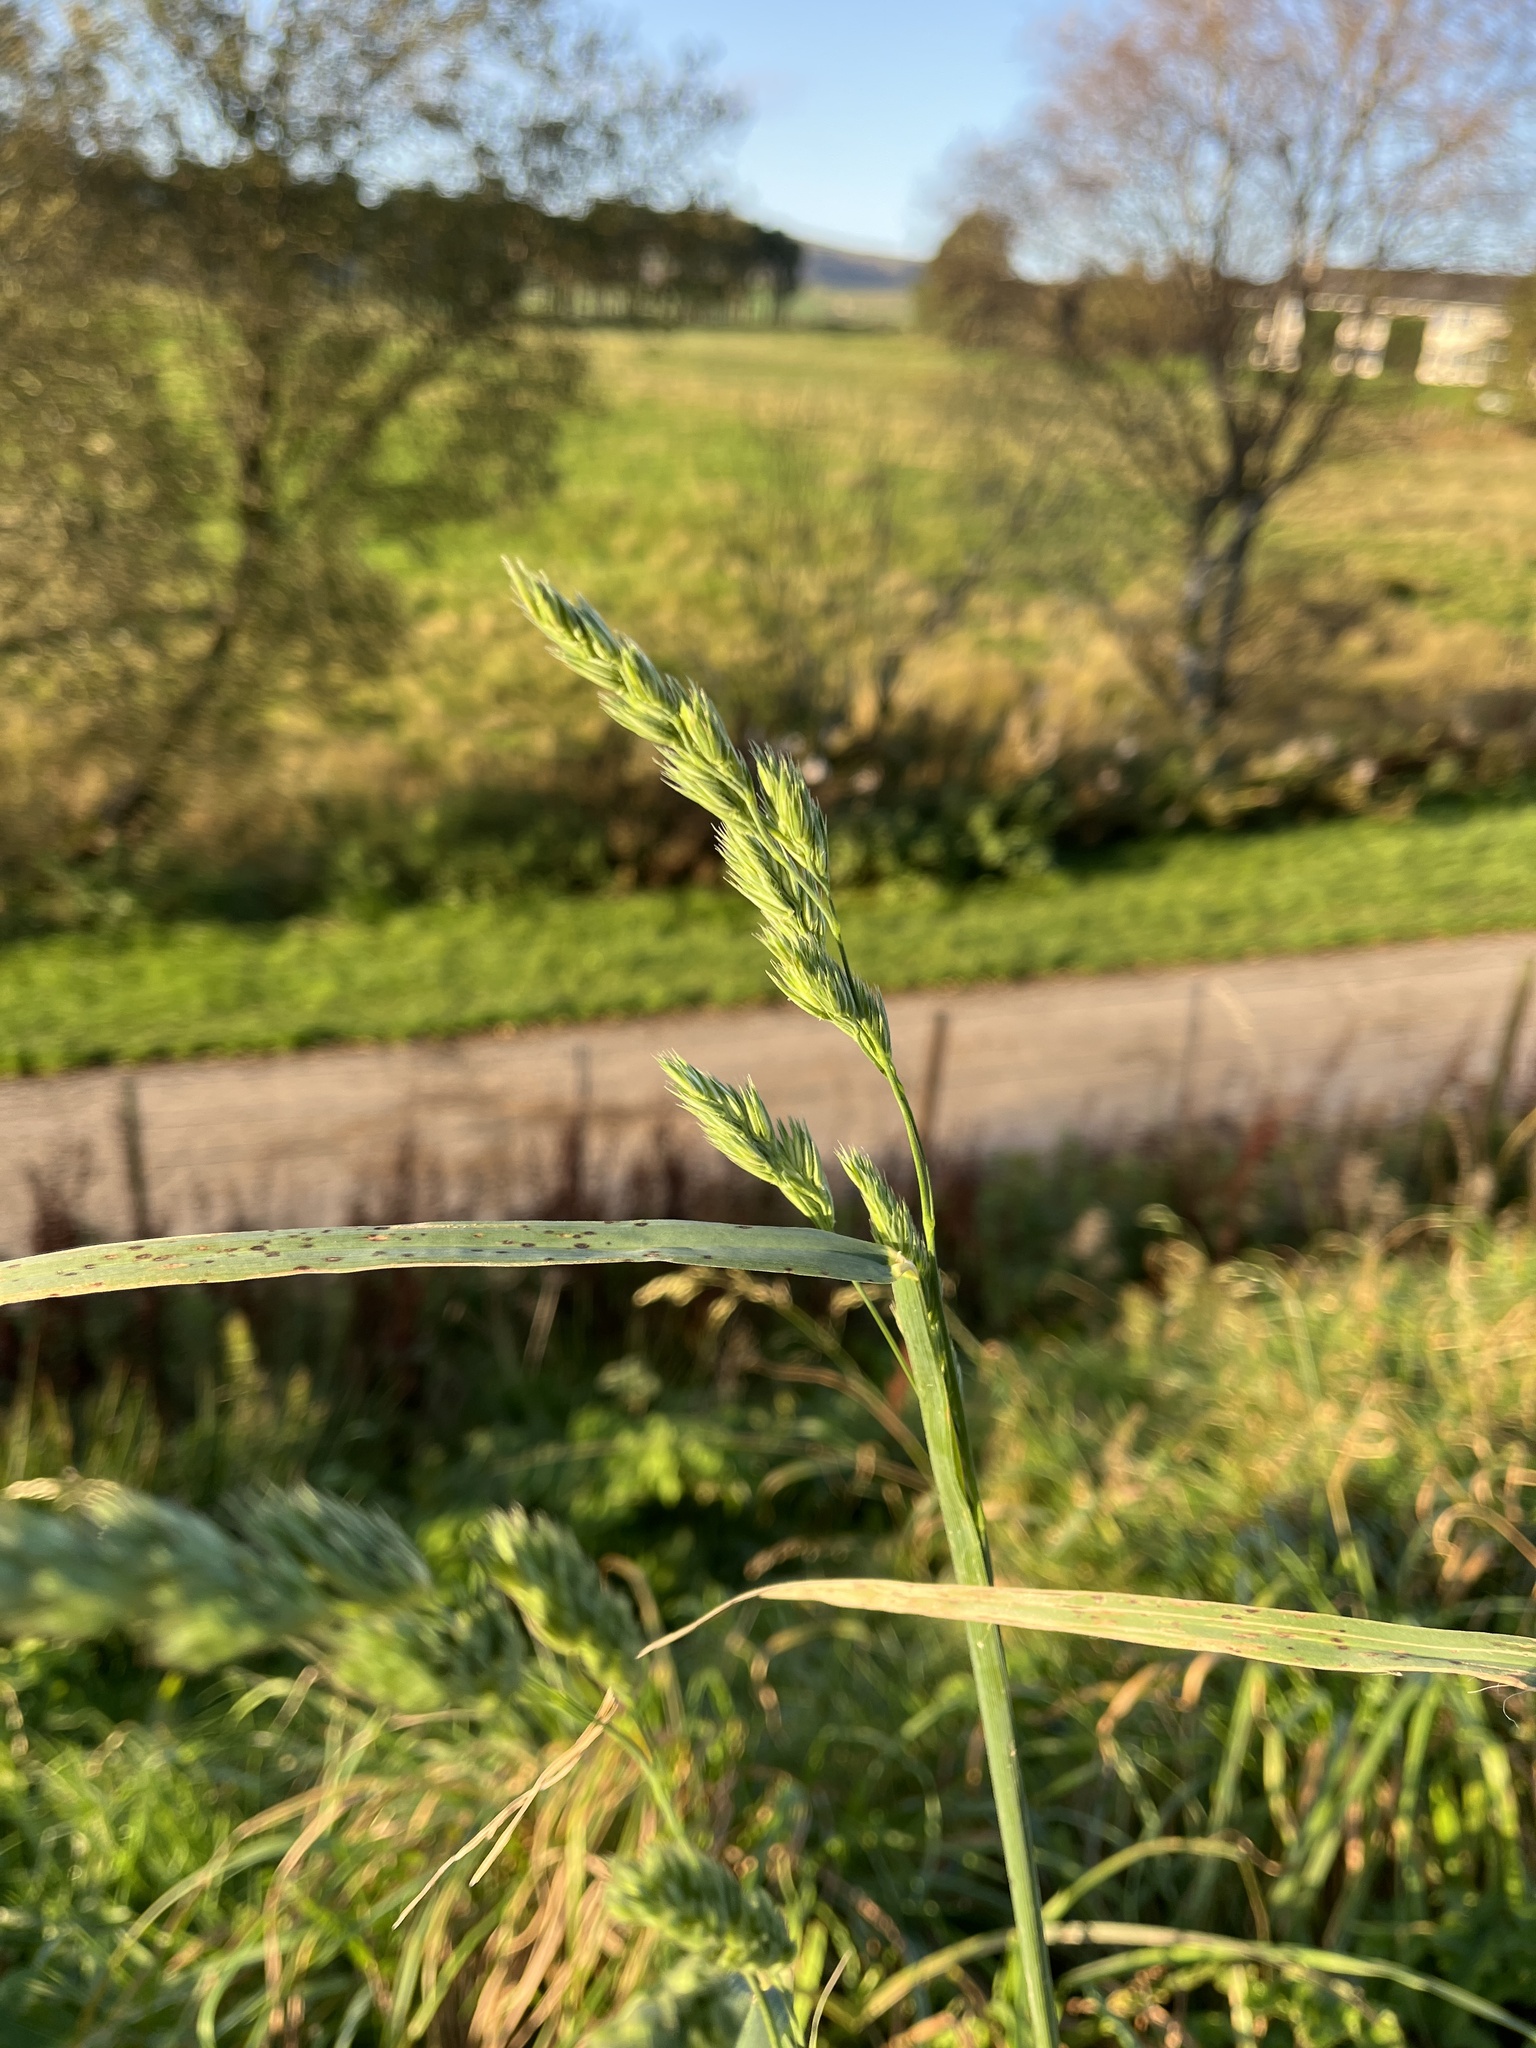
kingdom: Plantae
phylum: Tracheophyta
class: Liliopsida
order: Poales
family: Poaceae
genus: Dactylis
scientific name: Dactylis glomerata
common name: Orchardgrass
